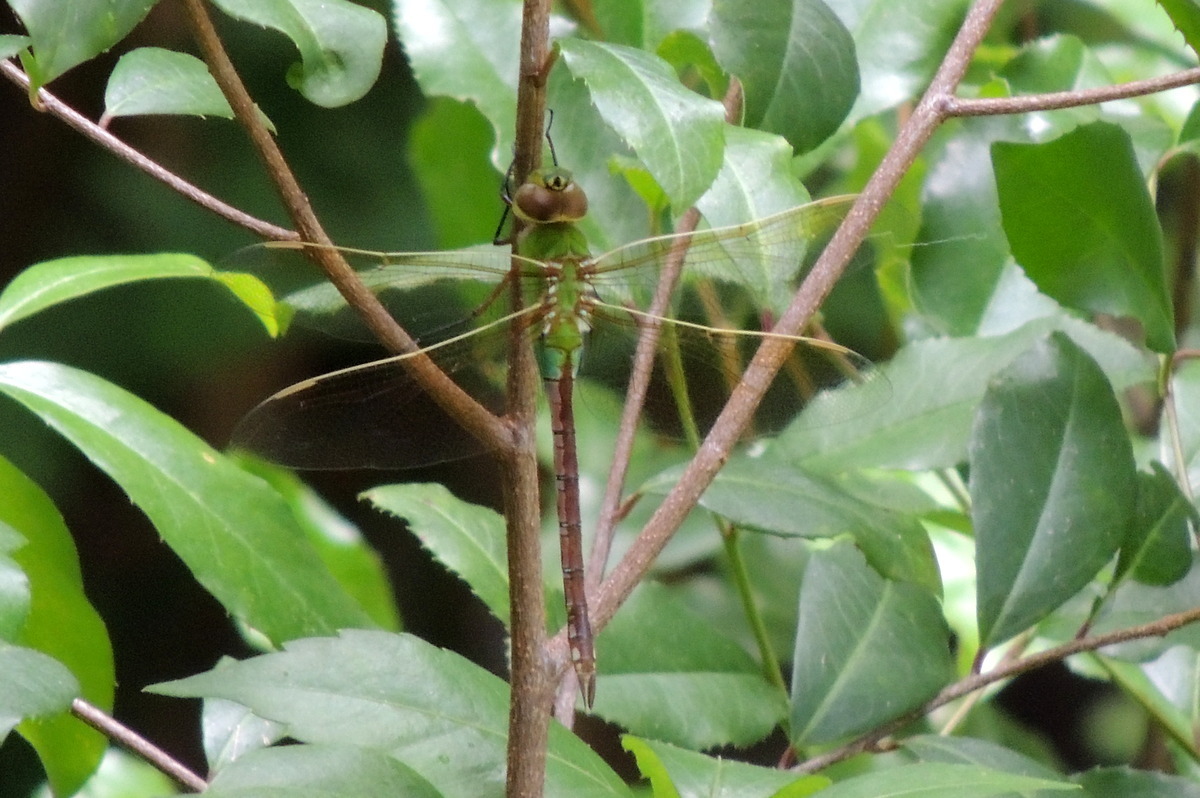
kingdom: Animalia
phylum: Arthropoda
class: Insecta
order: Odonata
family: Aeshnidae
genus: Anax
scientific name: Anax junius
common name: Common green darner
